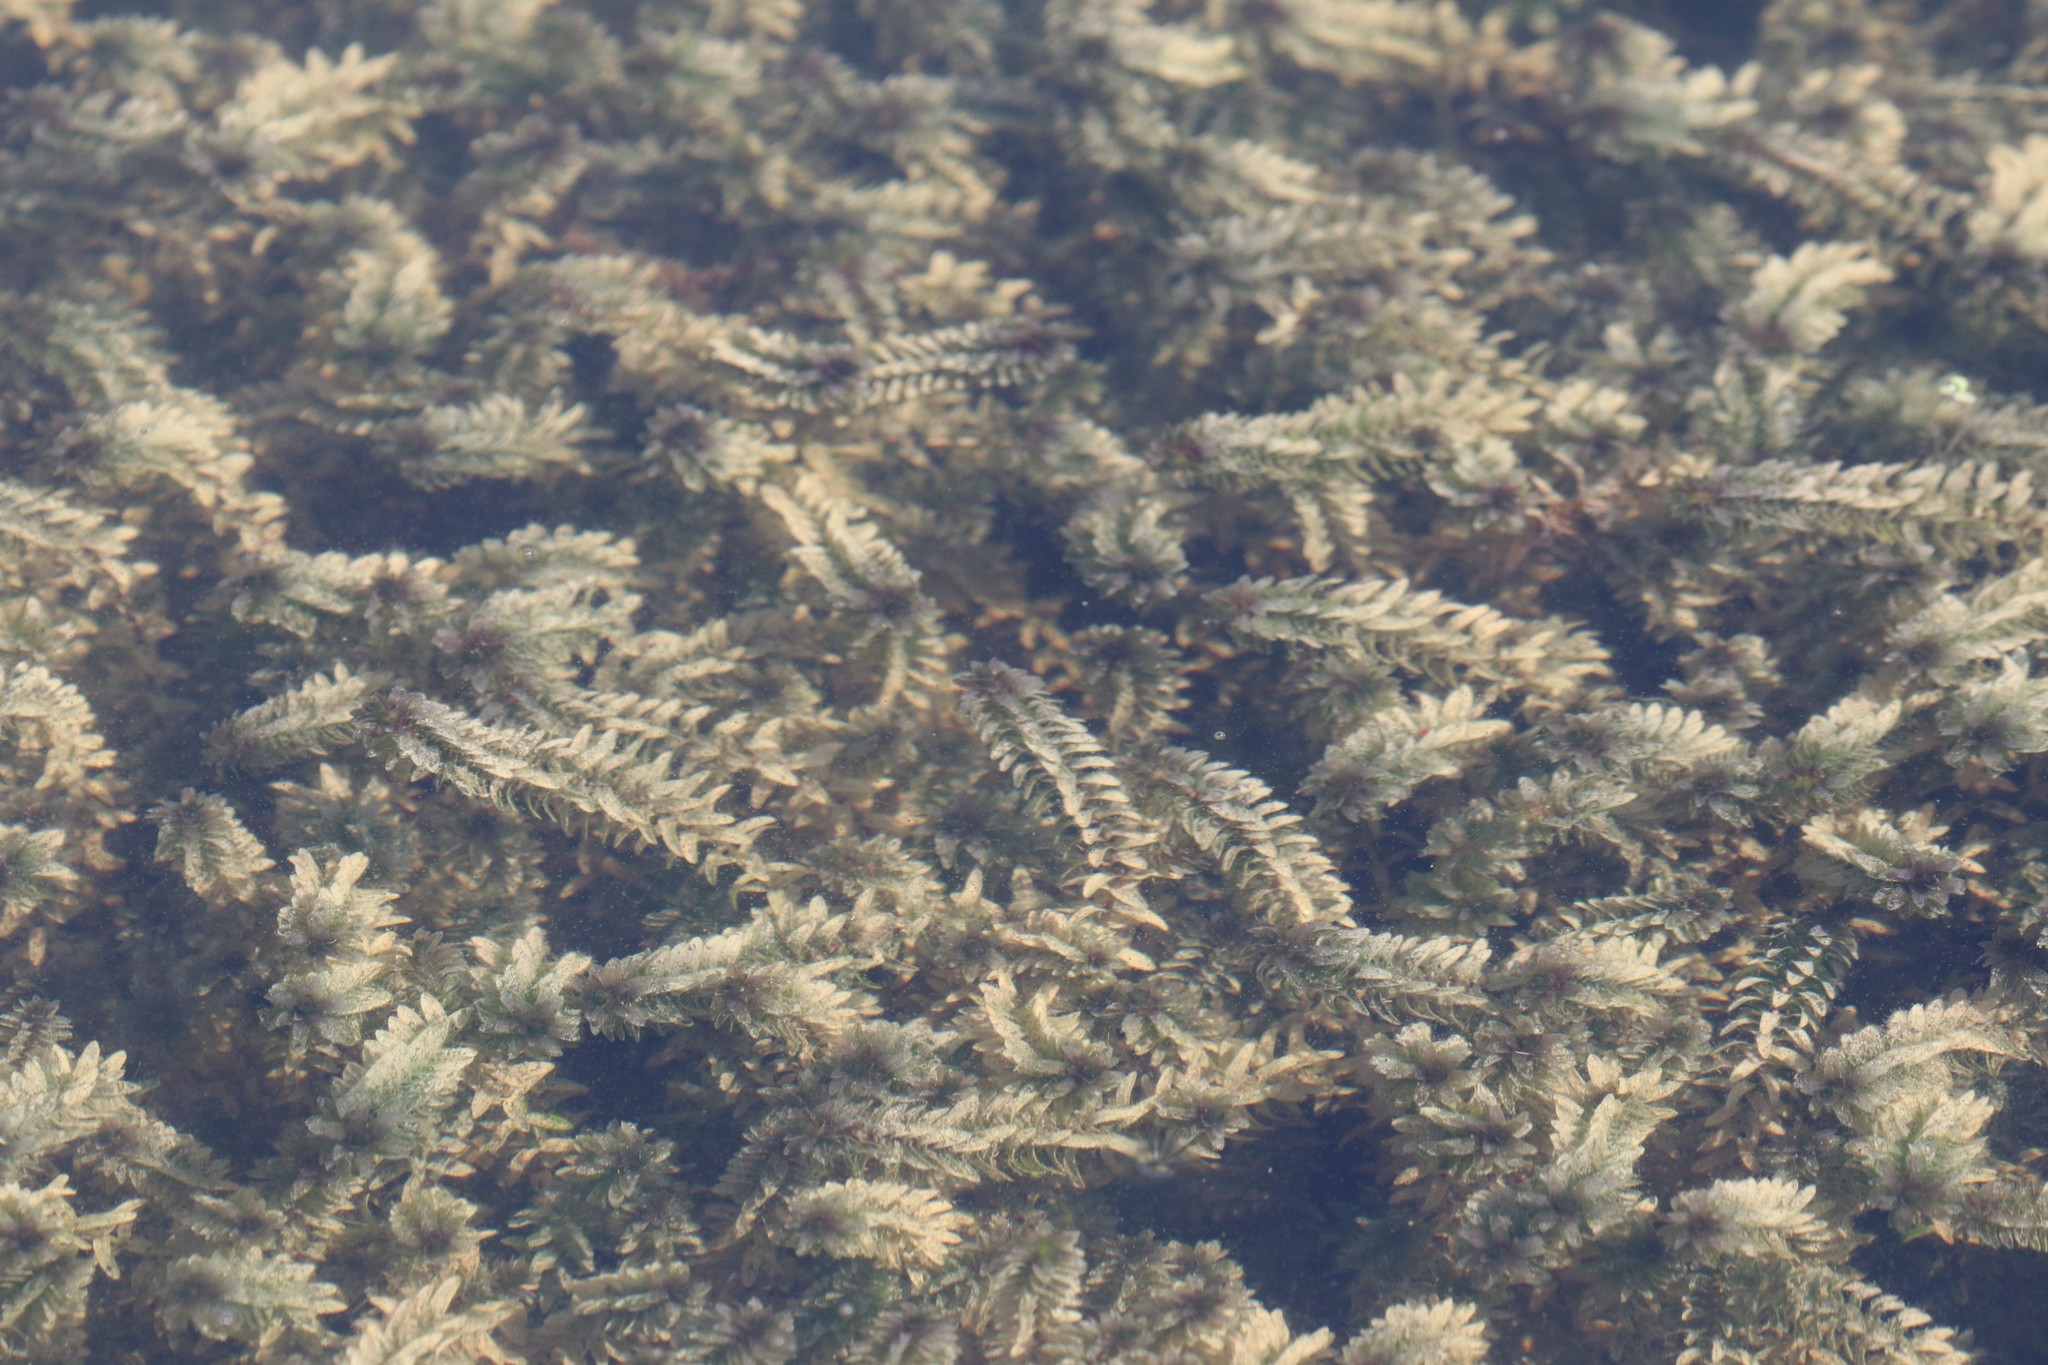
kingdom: Plantae
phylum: Tracheophyta
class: Liliopsida
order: Alismatales
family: Hydrocharitaceae
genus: Elodea
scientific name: Elodea canadensis
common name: Canadian waterweed
